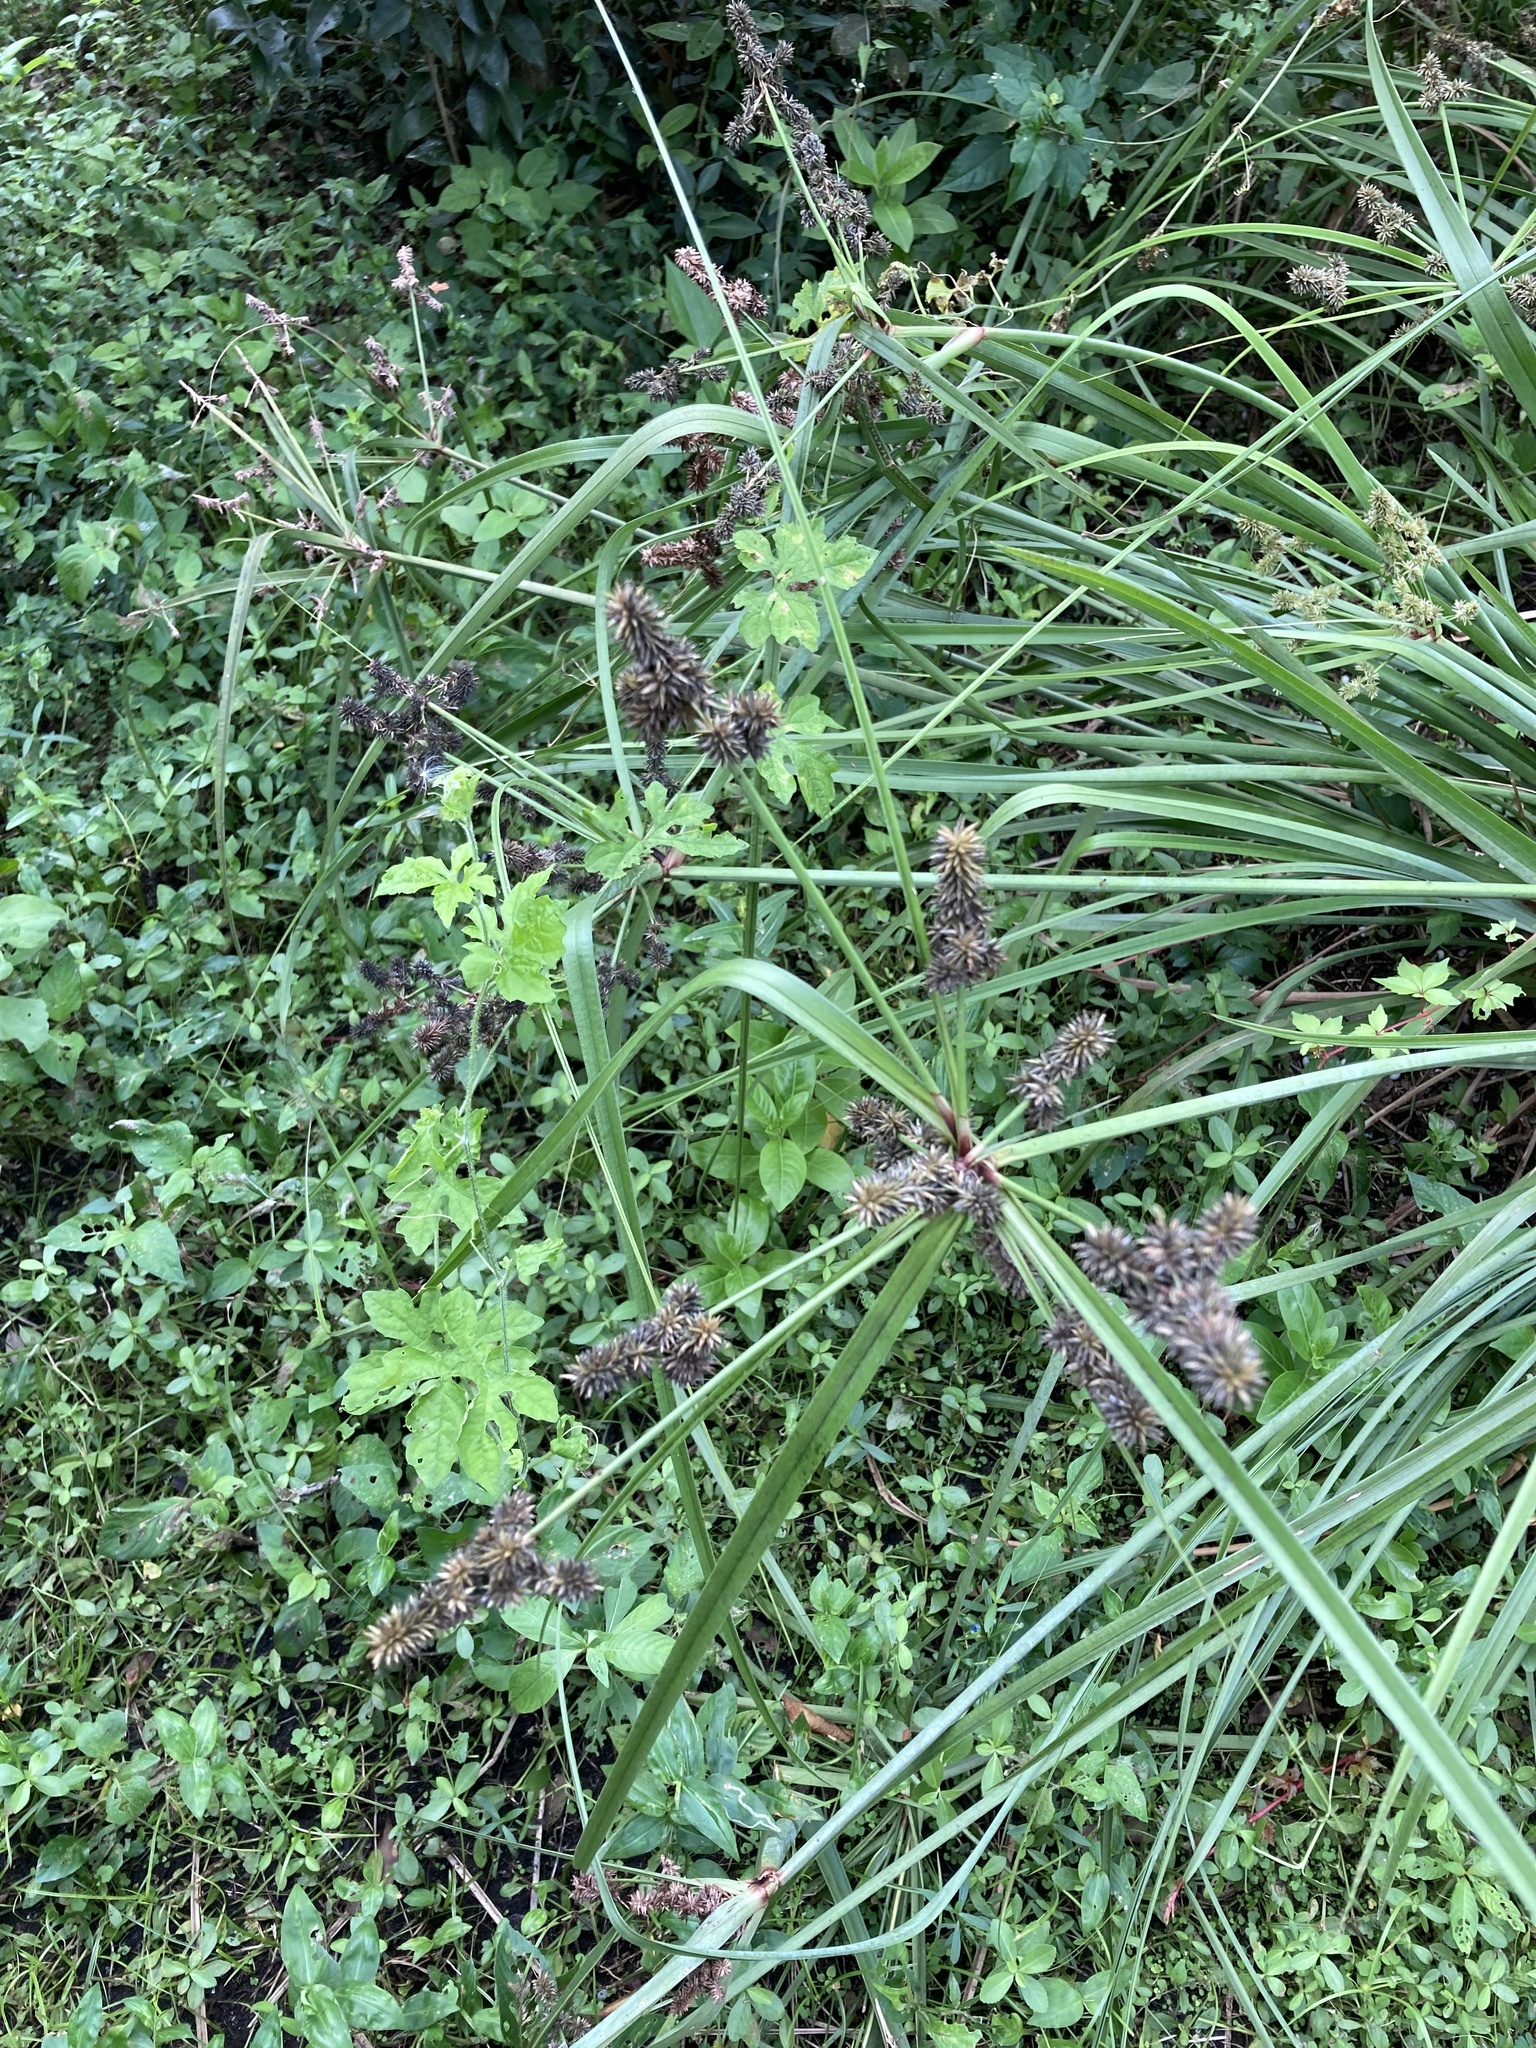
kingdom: Plantae
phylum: Tracheophyta
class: Liliopsida
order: Poales
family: Cyperaceae
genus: Cyperus
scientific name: Cyperus ligularis
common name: Swamp flat sedge
